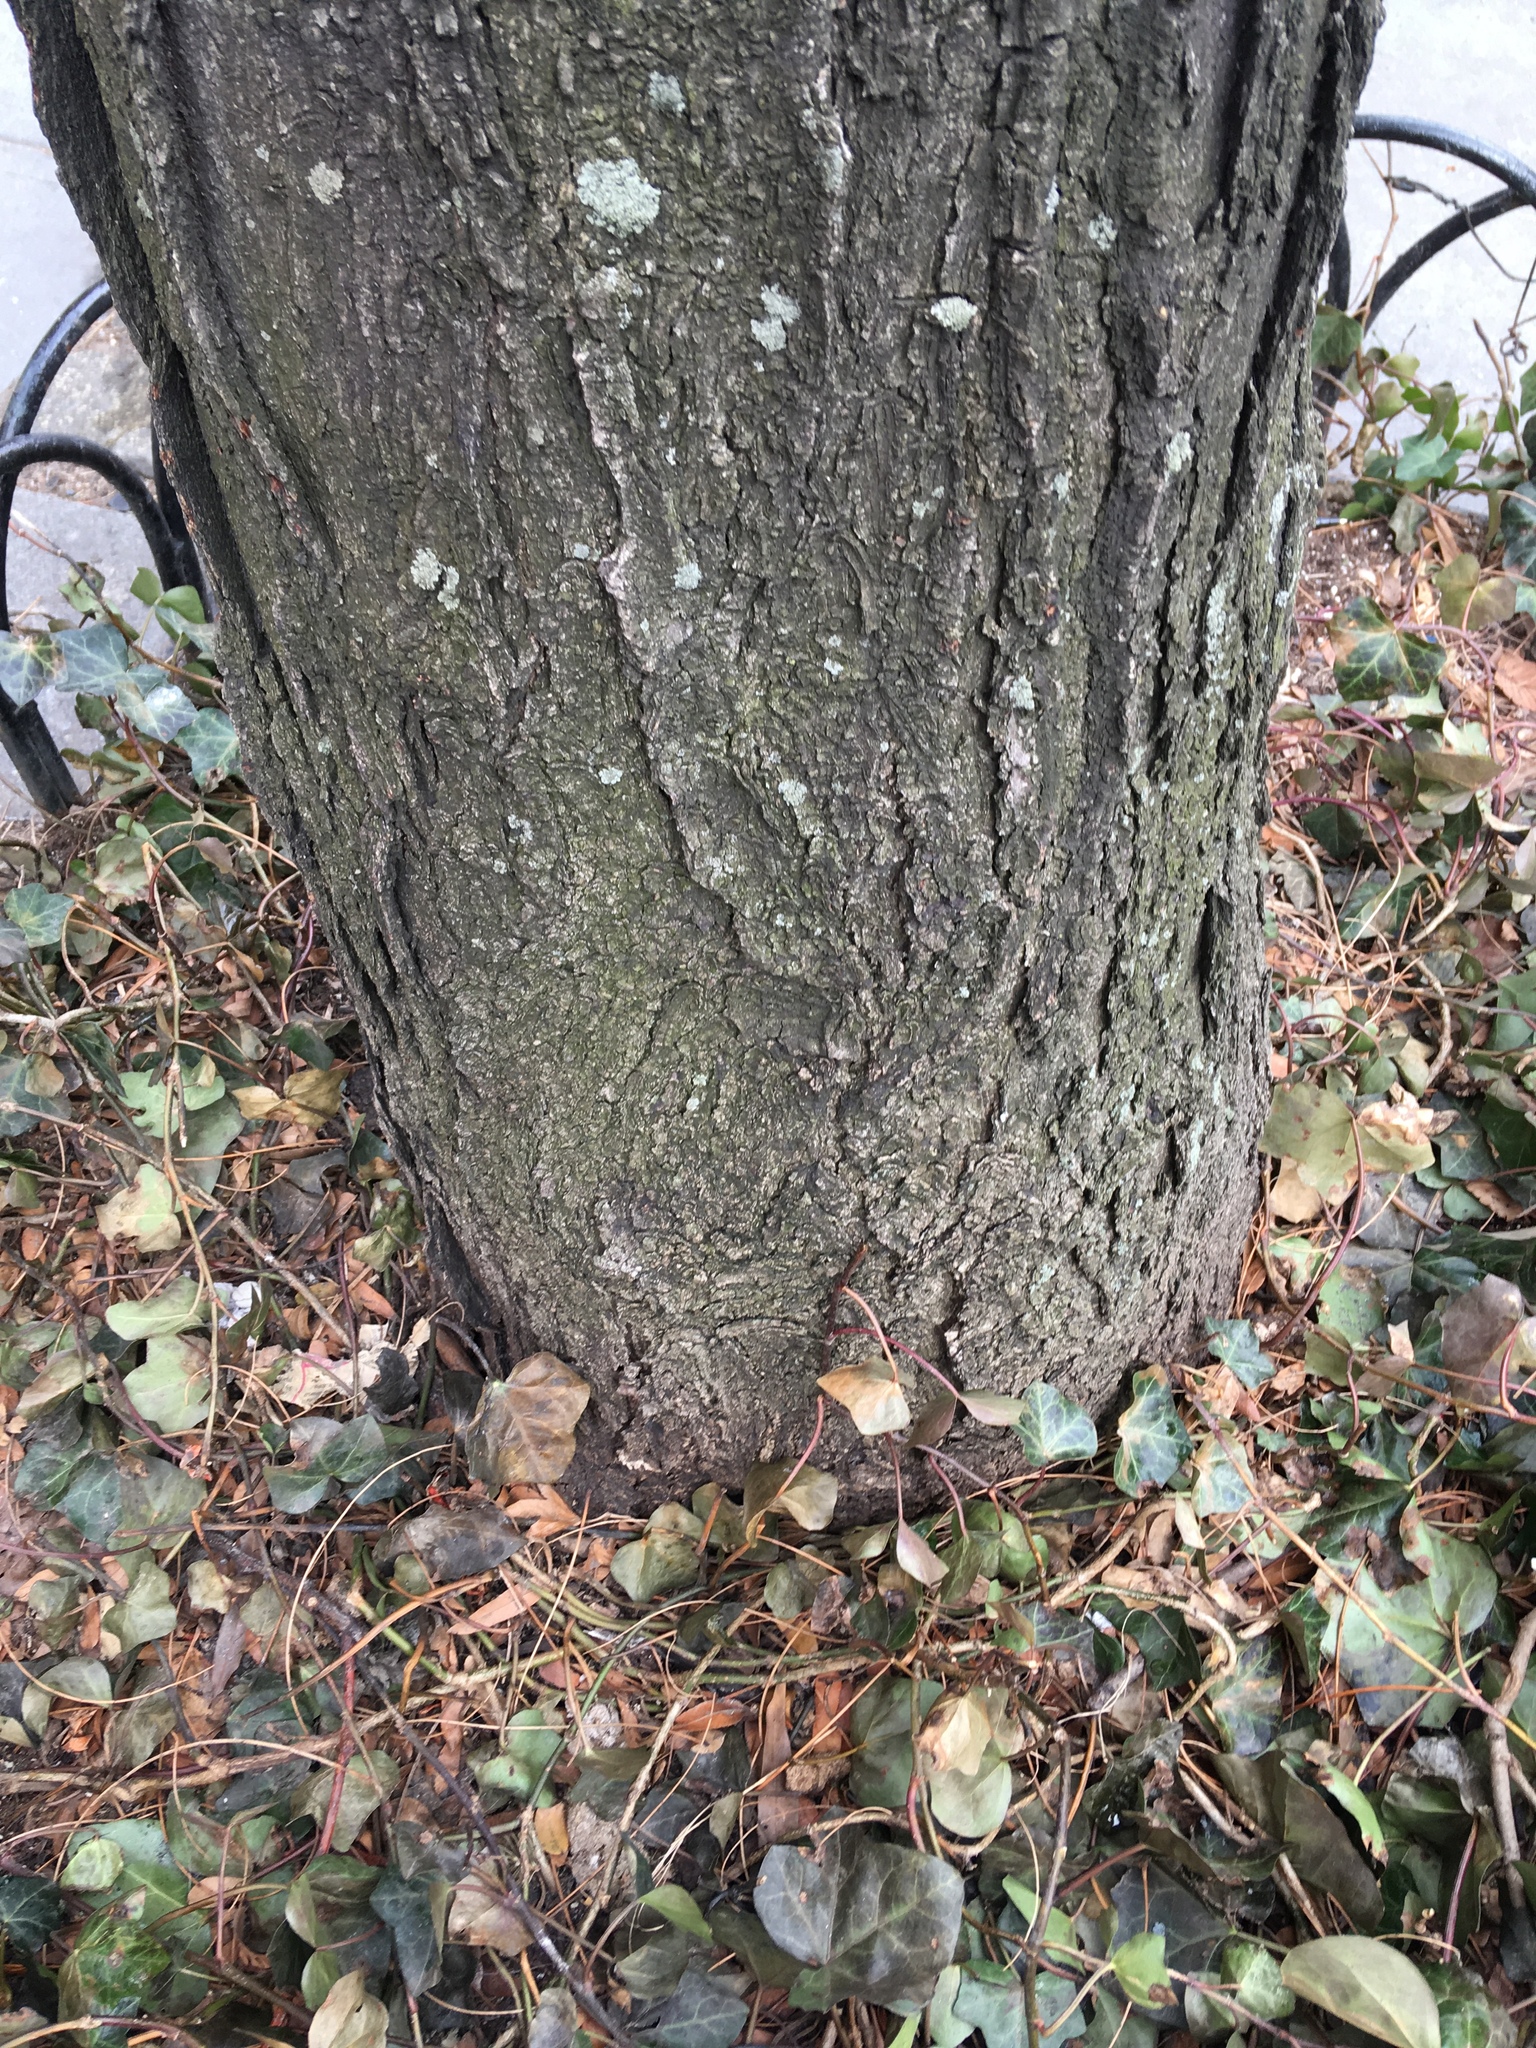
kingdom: Plantae
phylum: Tracheophyta
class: Magnoliopsida
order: Apiales
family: Araliaceae
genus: Hedera
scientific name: Hedera helix
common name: Ivy
